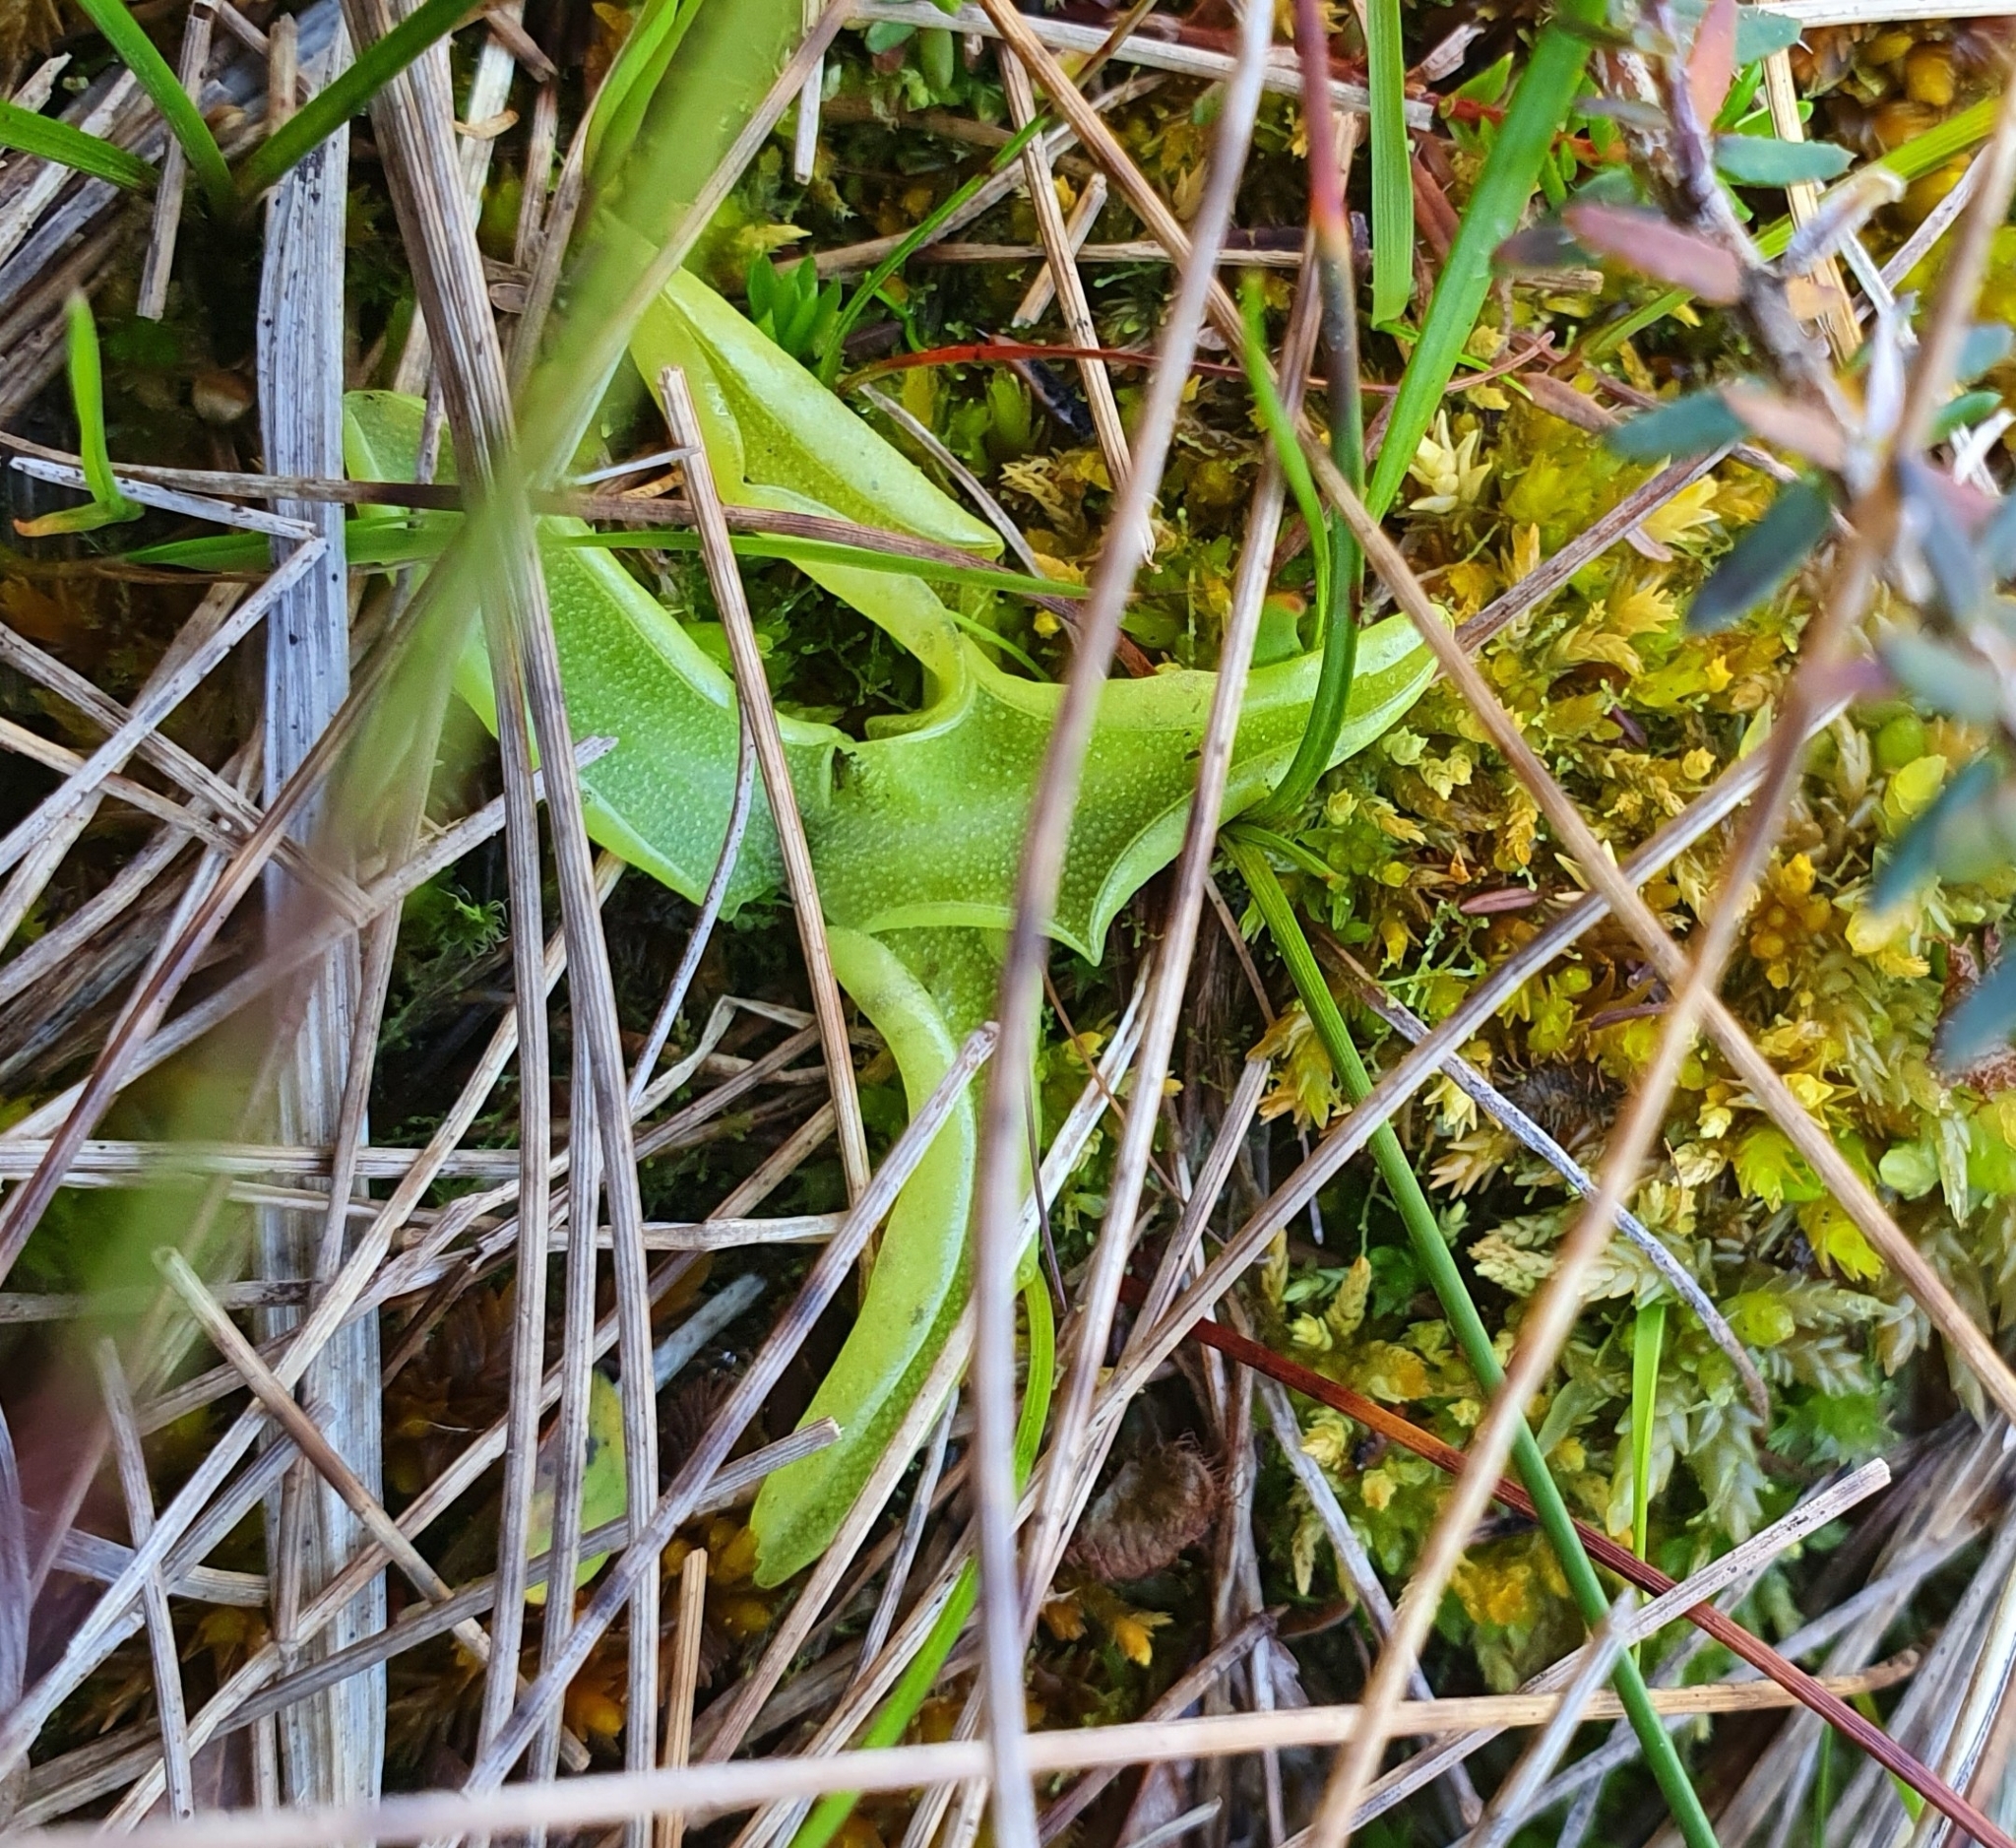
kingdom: Plantae
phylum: Tracheophyta
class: Magnoliopsida
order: Lamiales
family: Lentibulariaceae
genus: Pinguicula
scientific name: Pinguicula vulgaris
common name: Common butterwort
